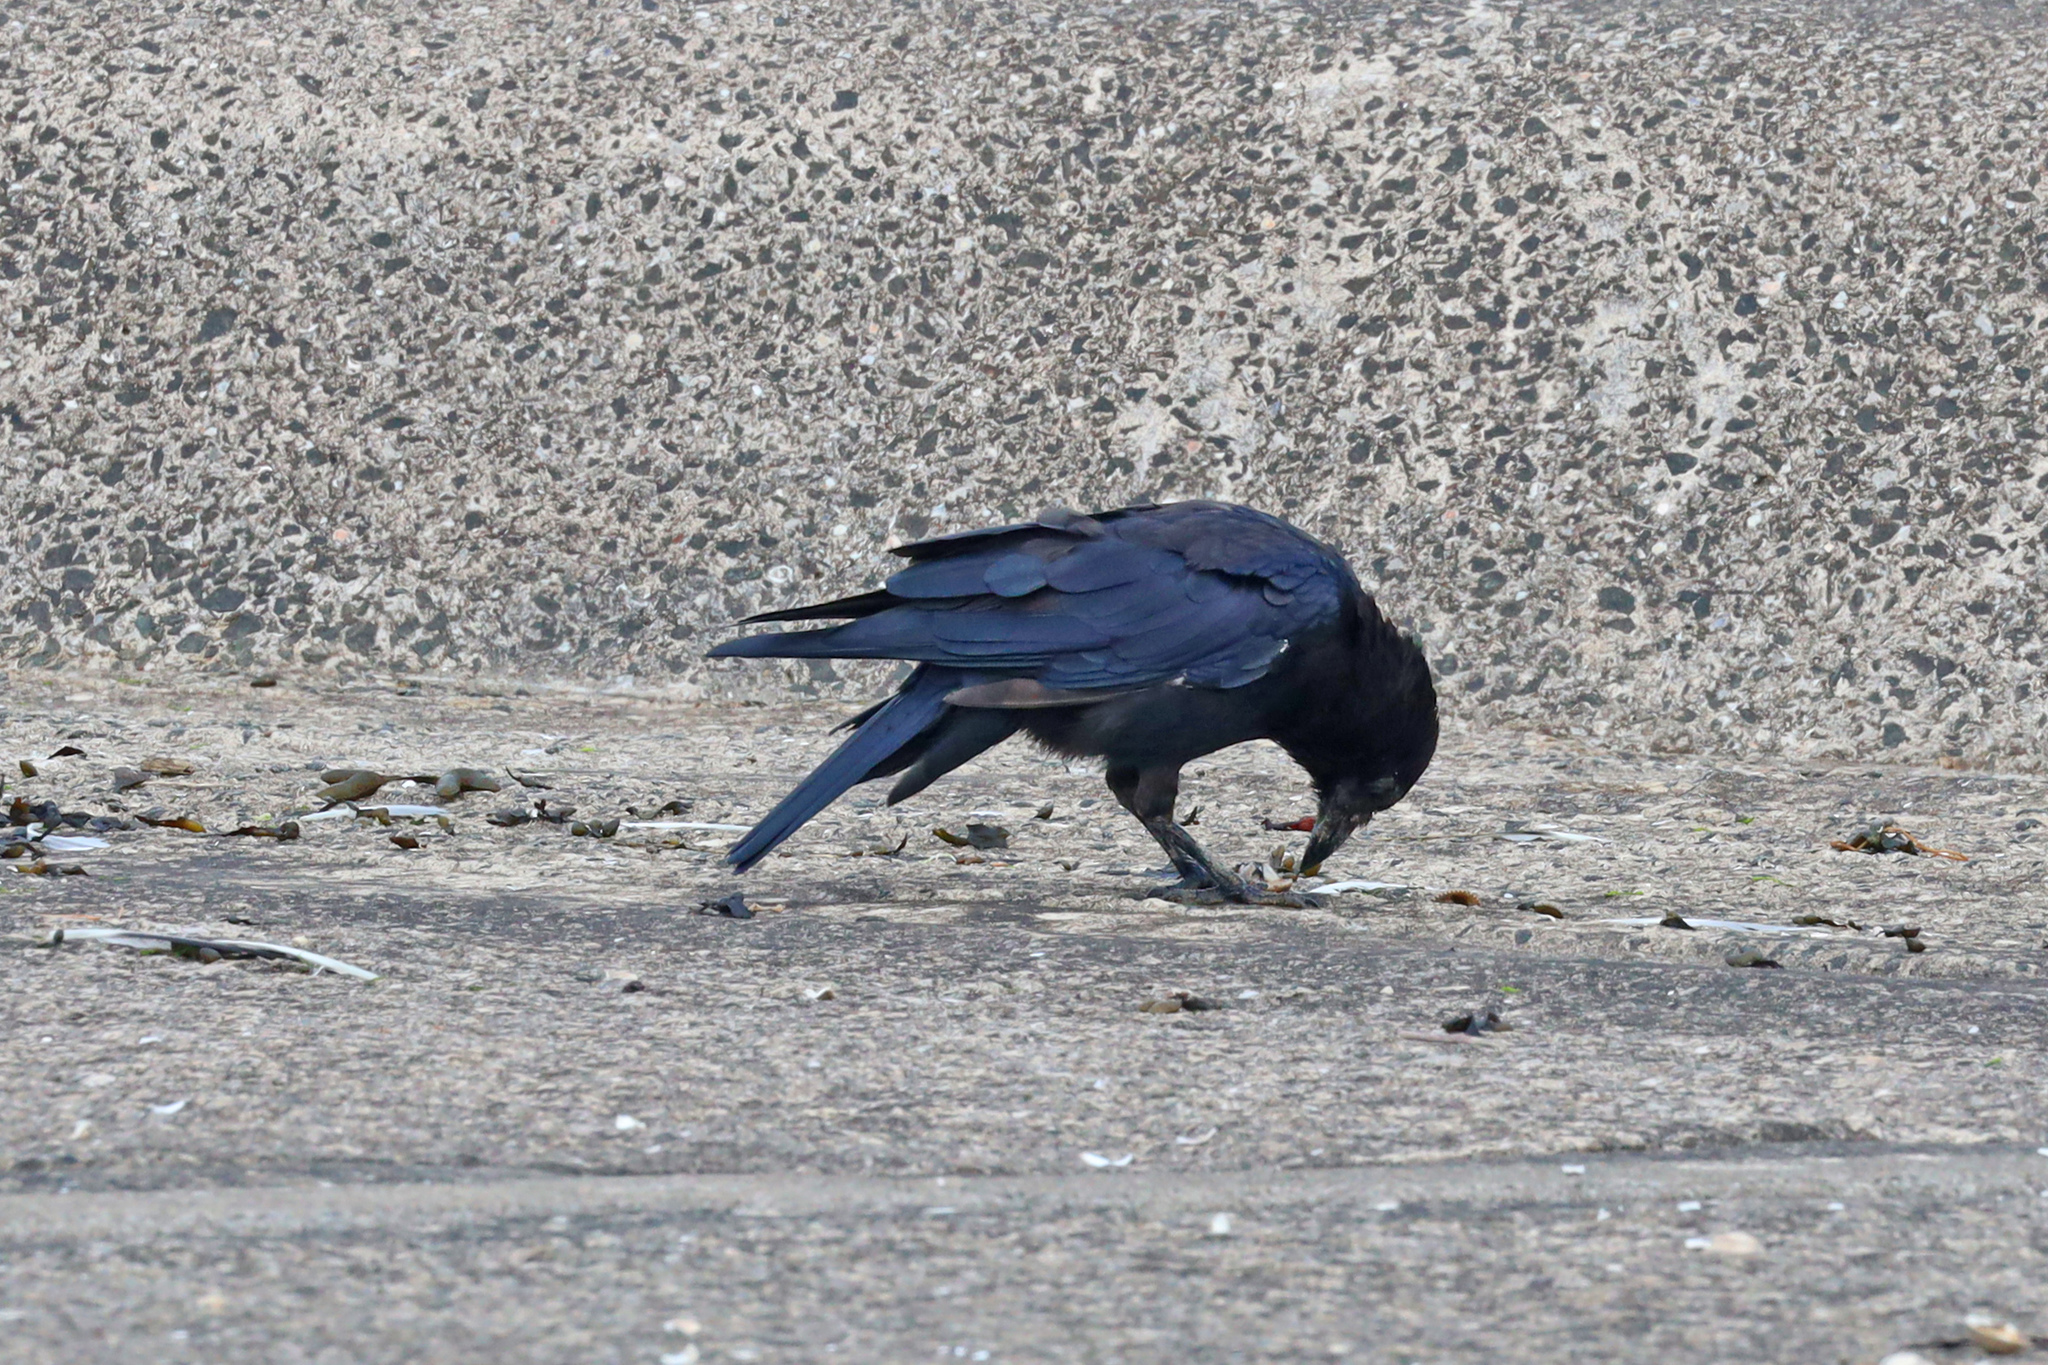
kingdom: Animalia
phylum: Chordata
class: Aves
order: Passeriformes
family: Corvidae
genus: Corvus
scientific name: Corvus corone
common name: Carrion crow
